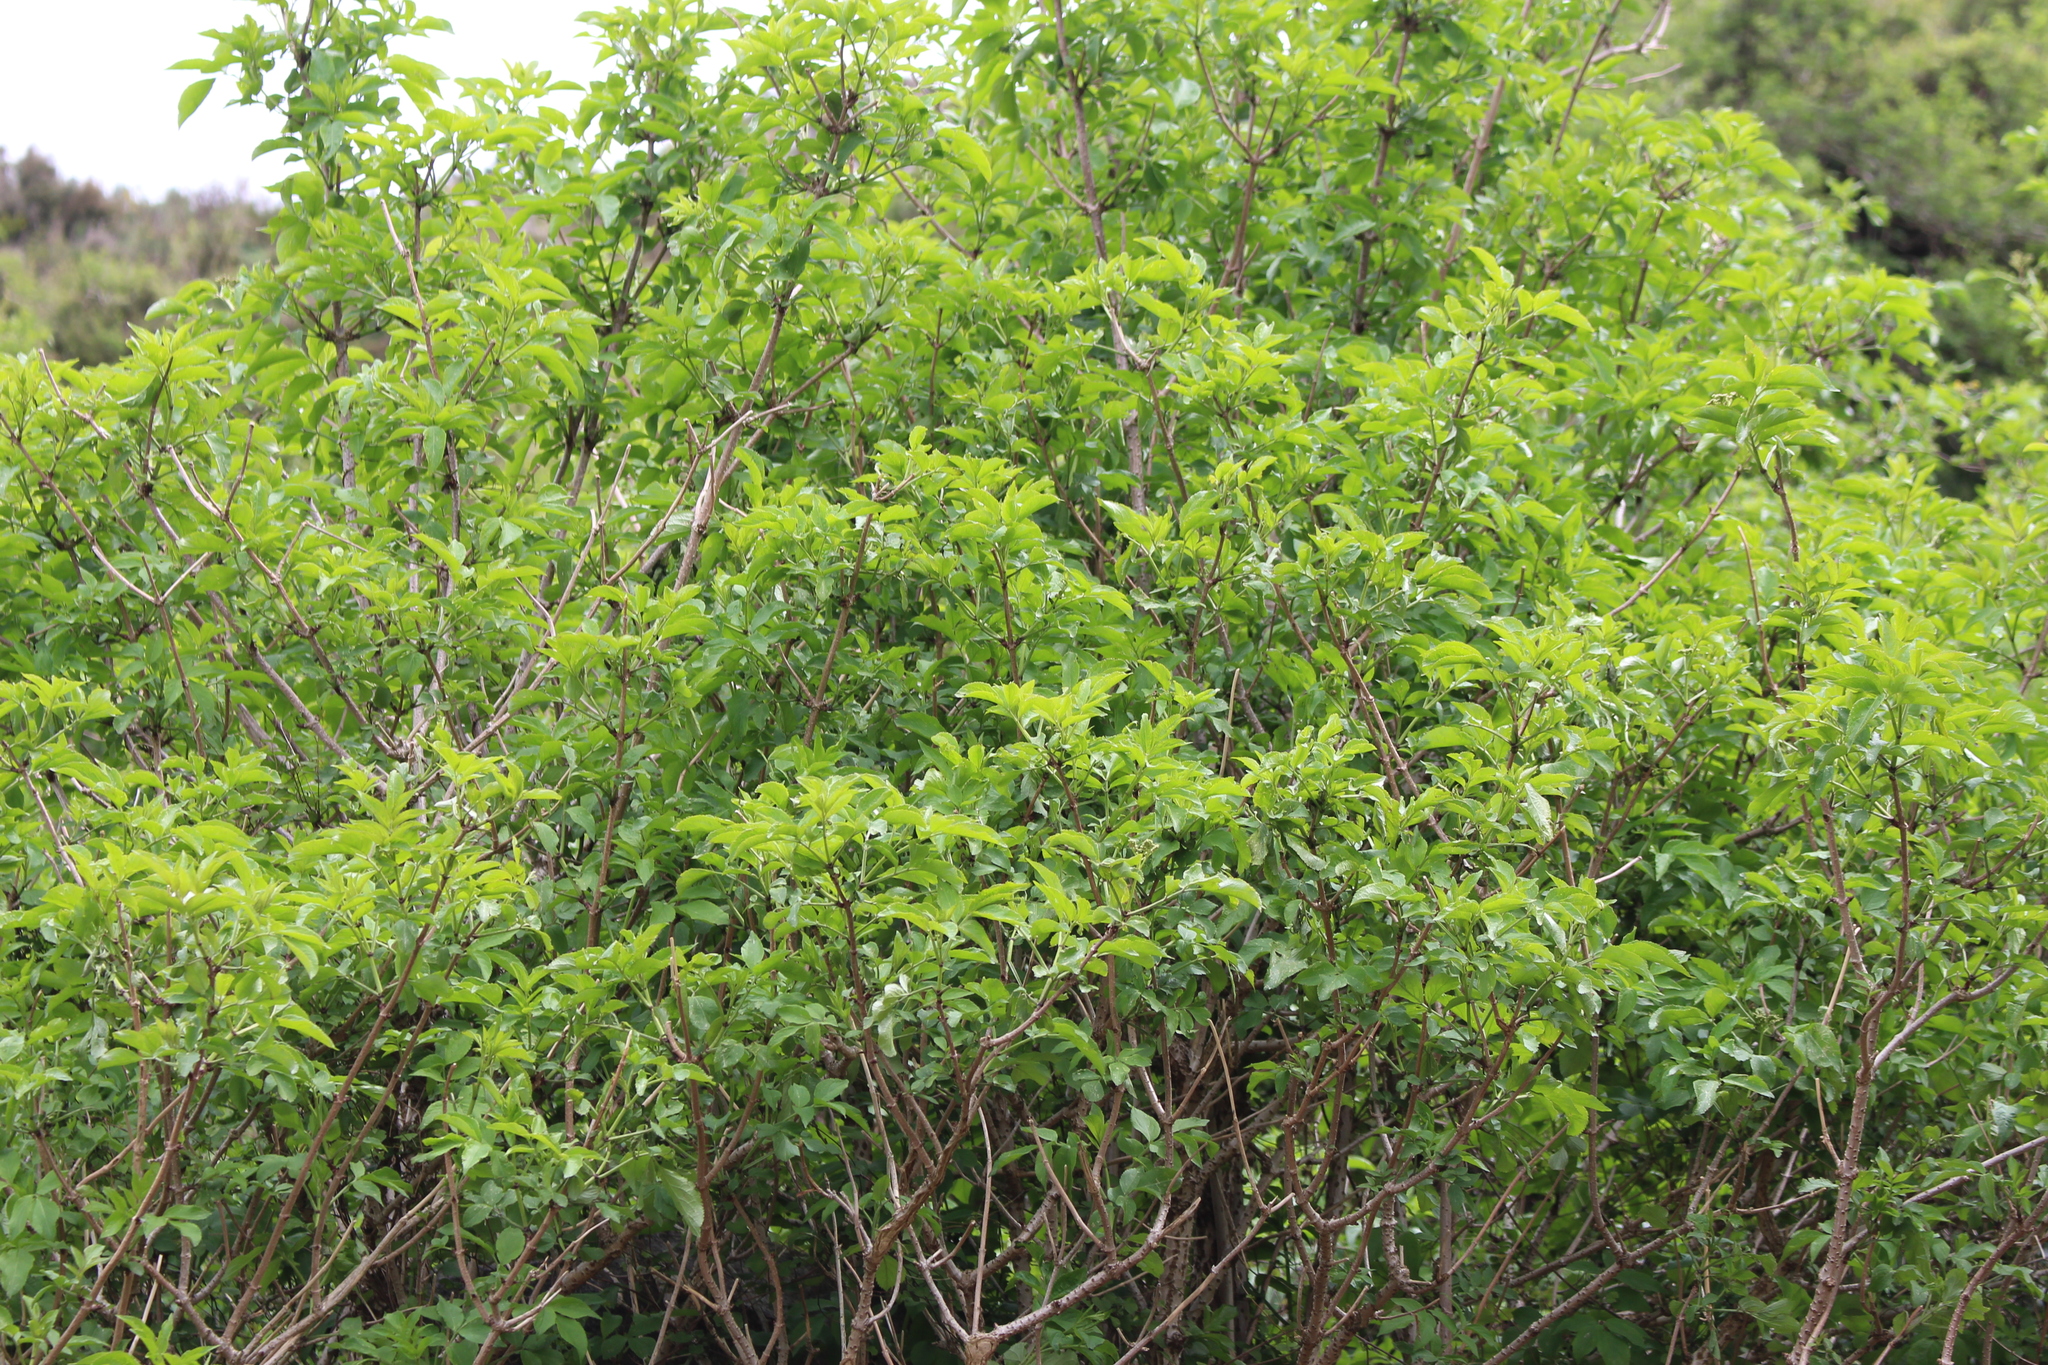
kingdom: Plantae
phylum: Tracheophyta
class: Magnoliopsida
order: Dipsacales
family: Viburnaceae
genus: Sambucus
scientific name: Sambucus nigra
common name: Elder
